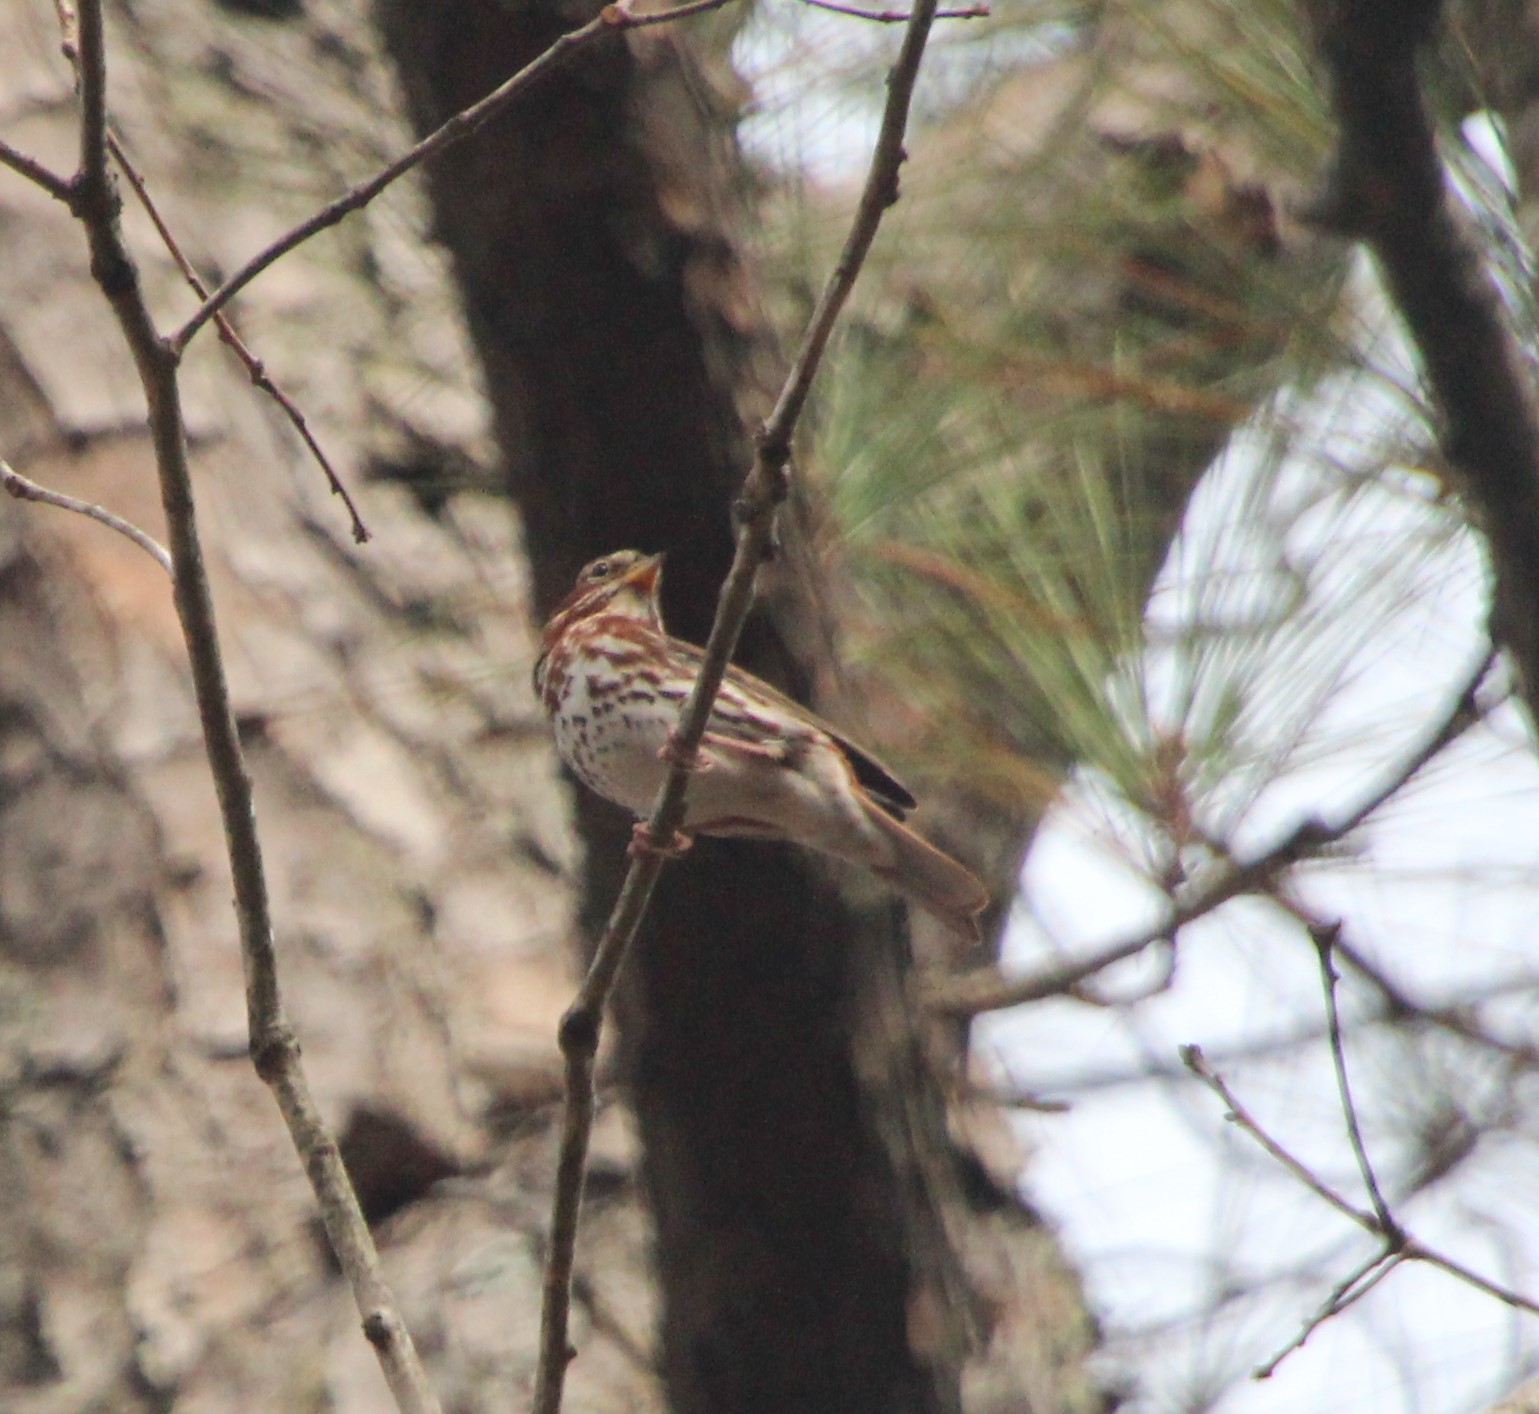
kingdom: Animalia
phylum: Chordata
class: Aves
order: Passeriformes
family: Passerellidae
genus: Passerella
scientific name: Passerella iliaca
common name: Fox sparrow
